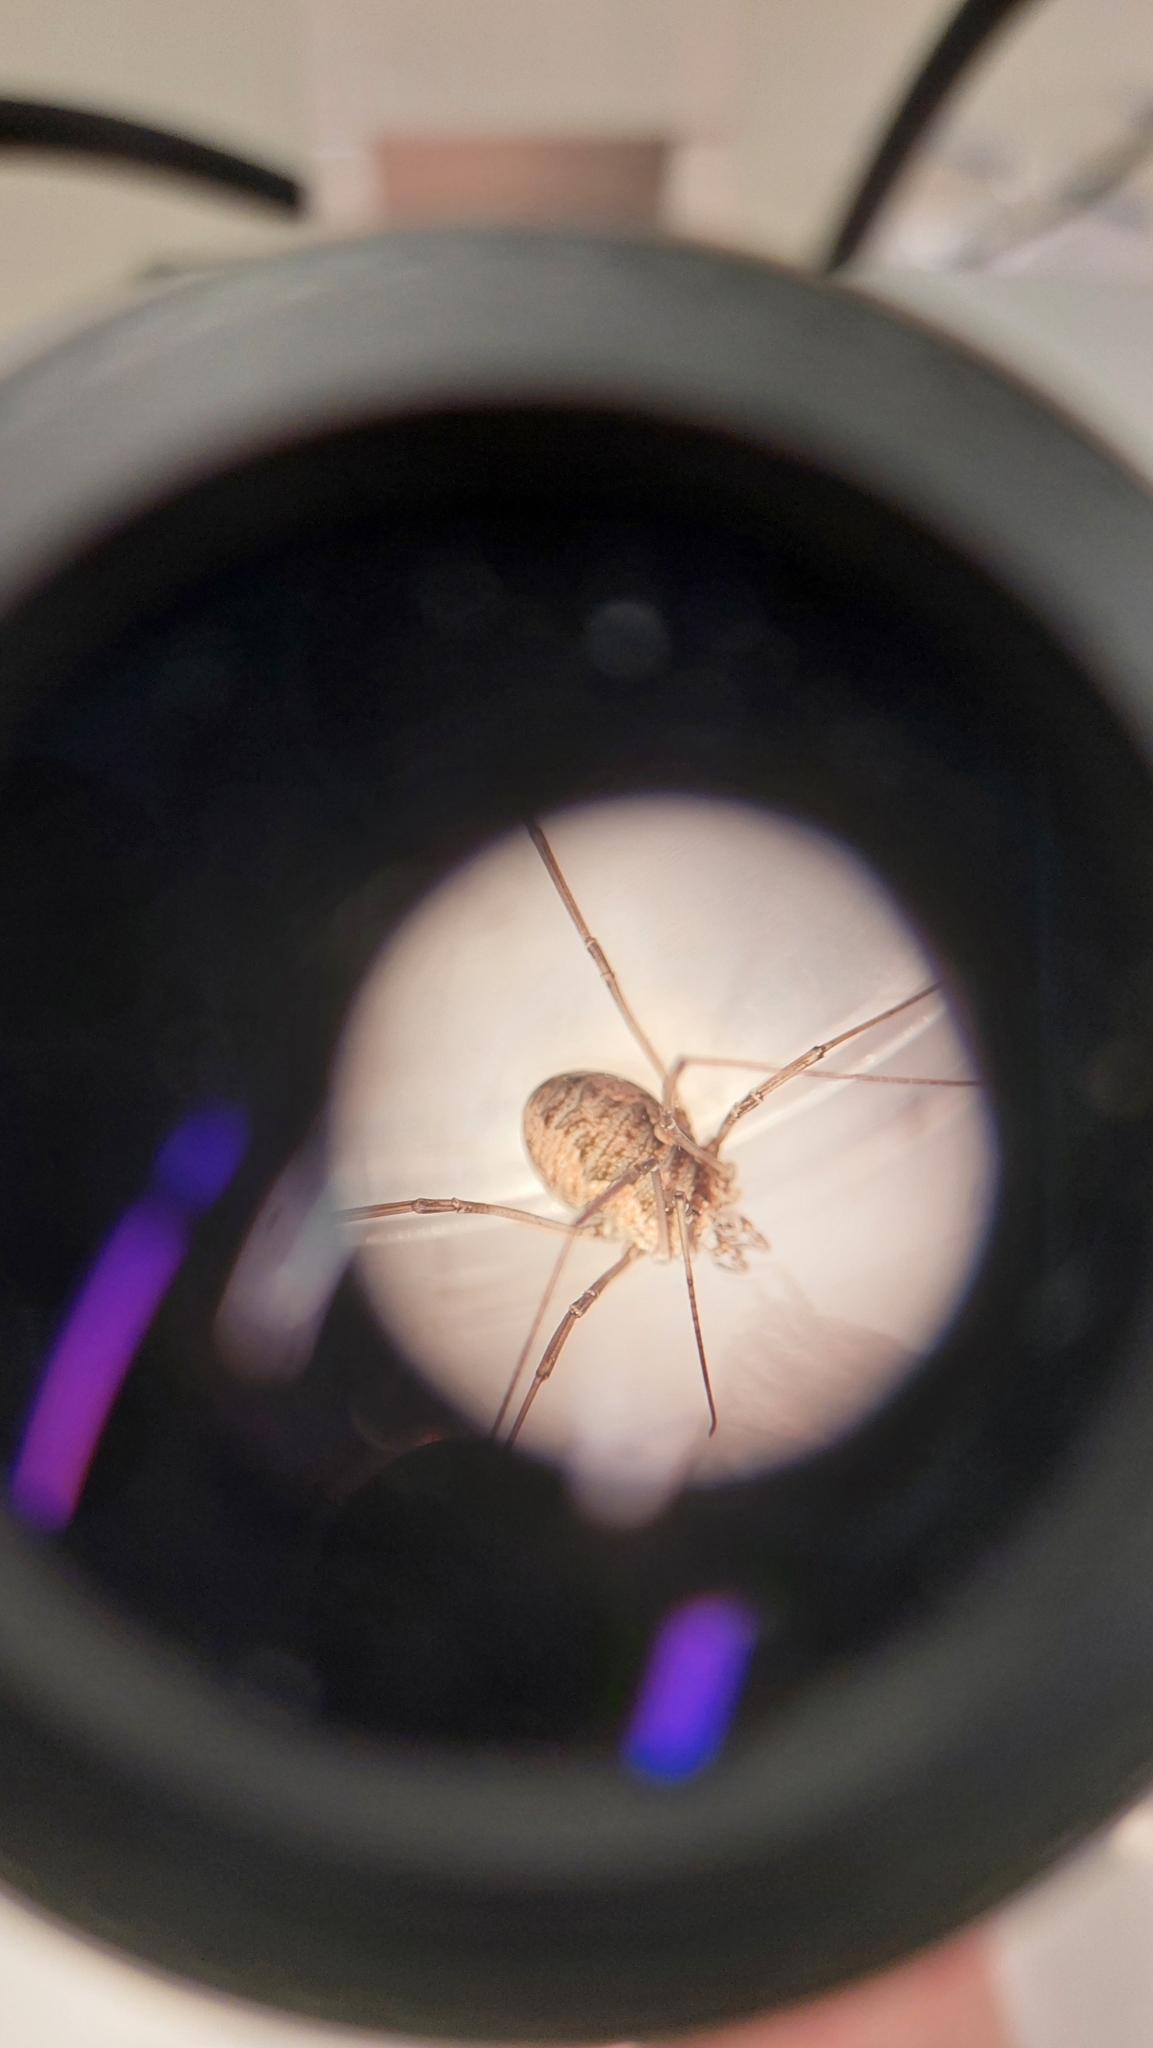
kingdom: Animalia
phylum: Arthropoda
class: Arachnida
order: Opiliones
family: Phalangiidae
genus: Phalangium
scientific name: Phalangium opilio
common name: Daddy longleg
